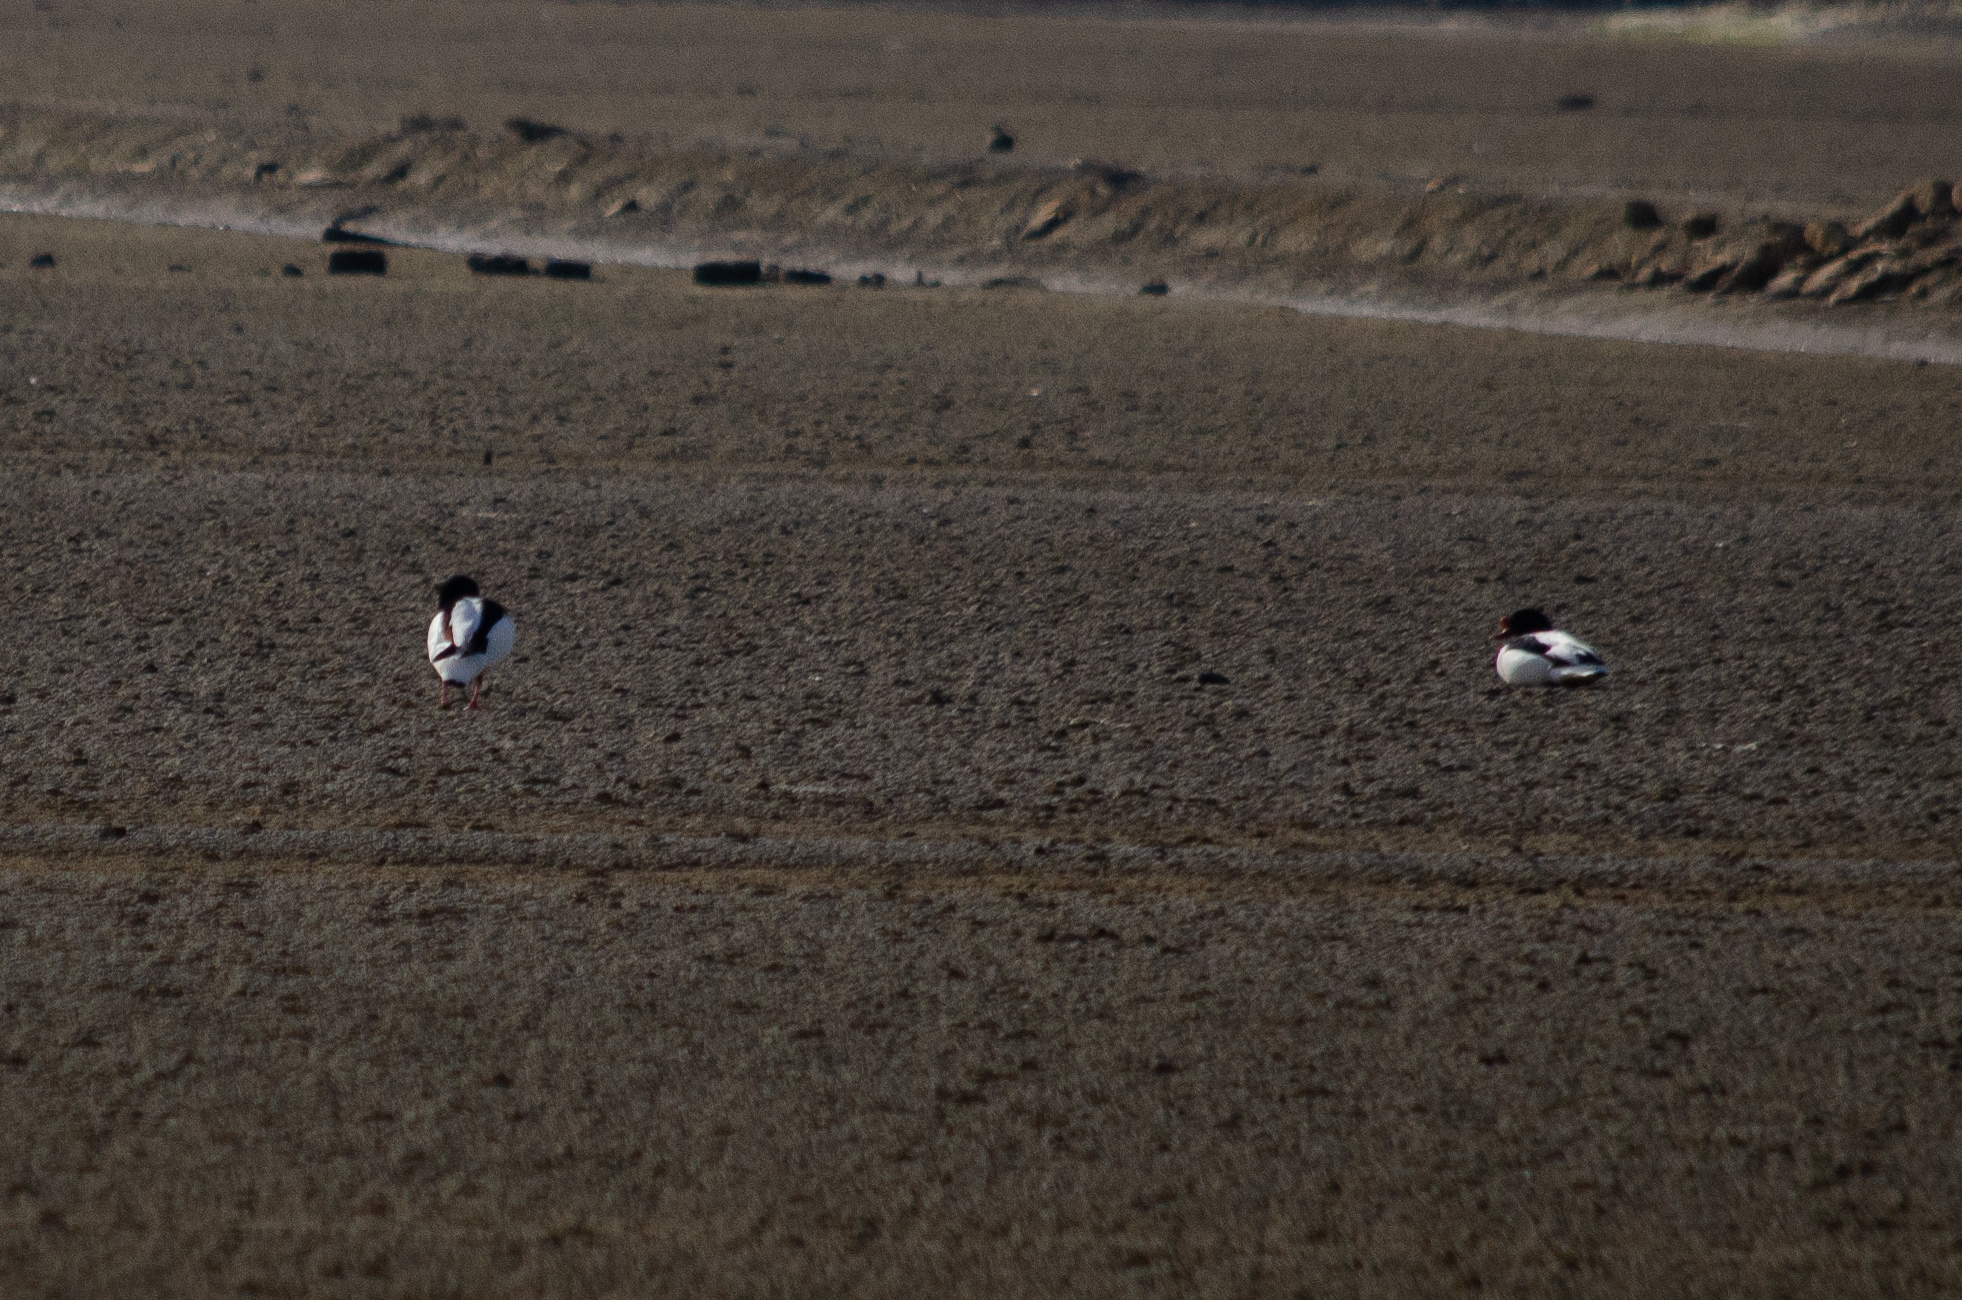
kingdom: Animalia
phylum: Chordata
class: Aves
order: Anseriformes
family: Anatidae
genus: Tadorna
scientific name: Tadorna tadorna
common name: Common shelduck
